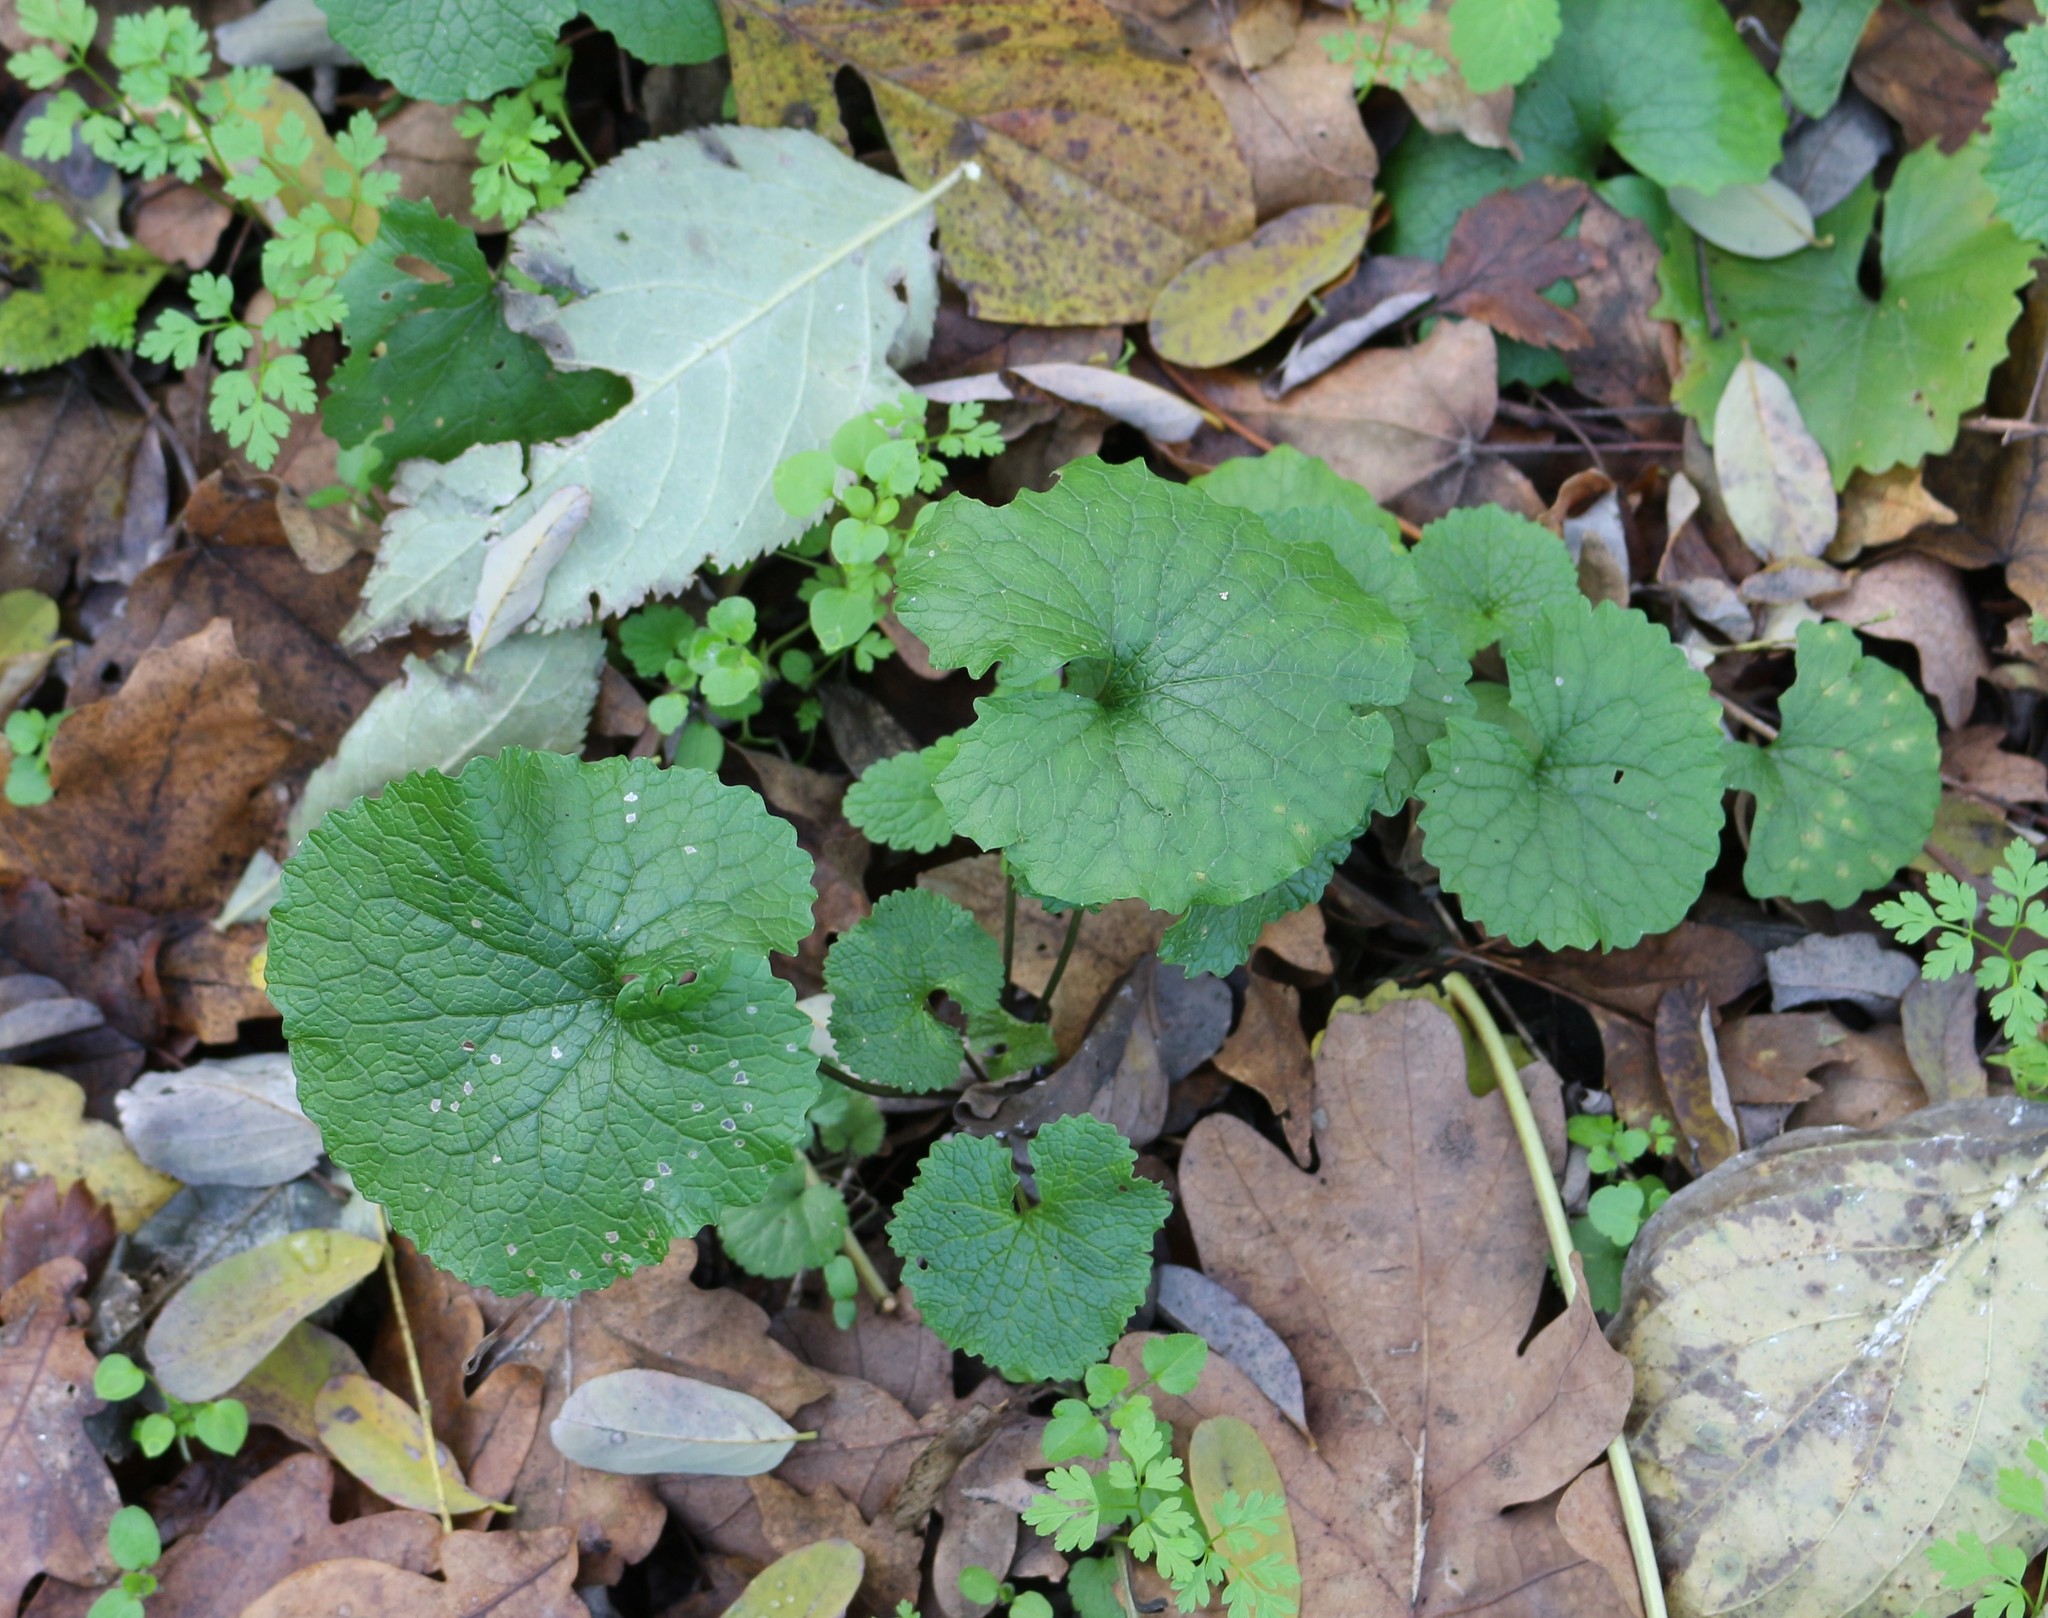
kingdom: Plantae
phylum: Tracheophyta
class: Magnoliopsida
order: Brassicales
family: Brassicaceae
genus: Alliaria
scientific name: Alliaria petiolata
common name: Garlic mustard
